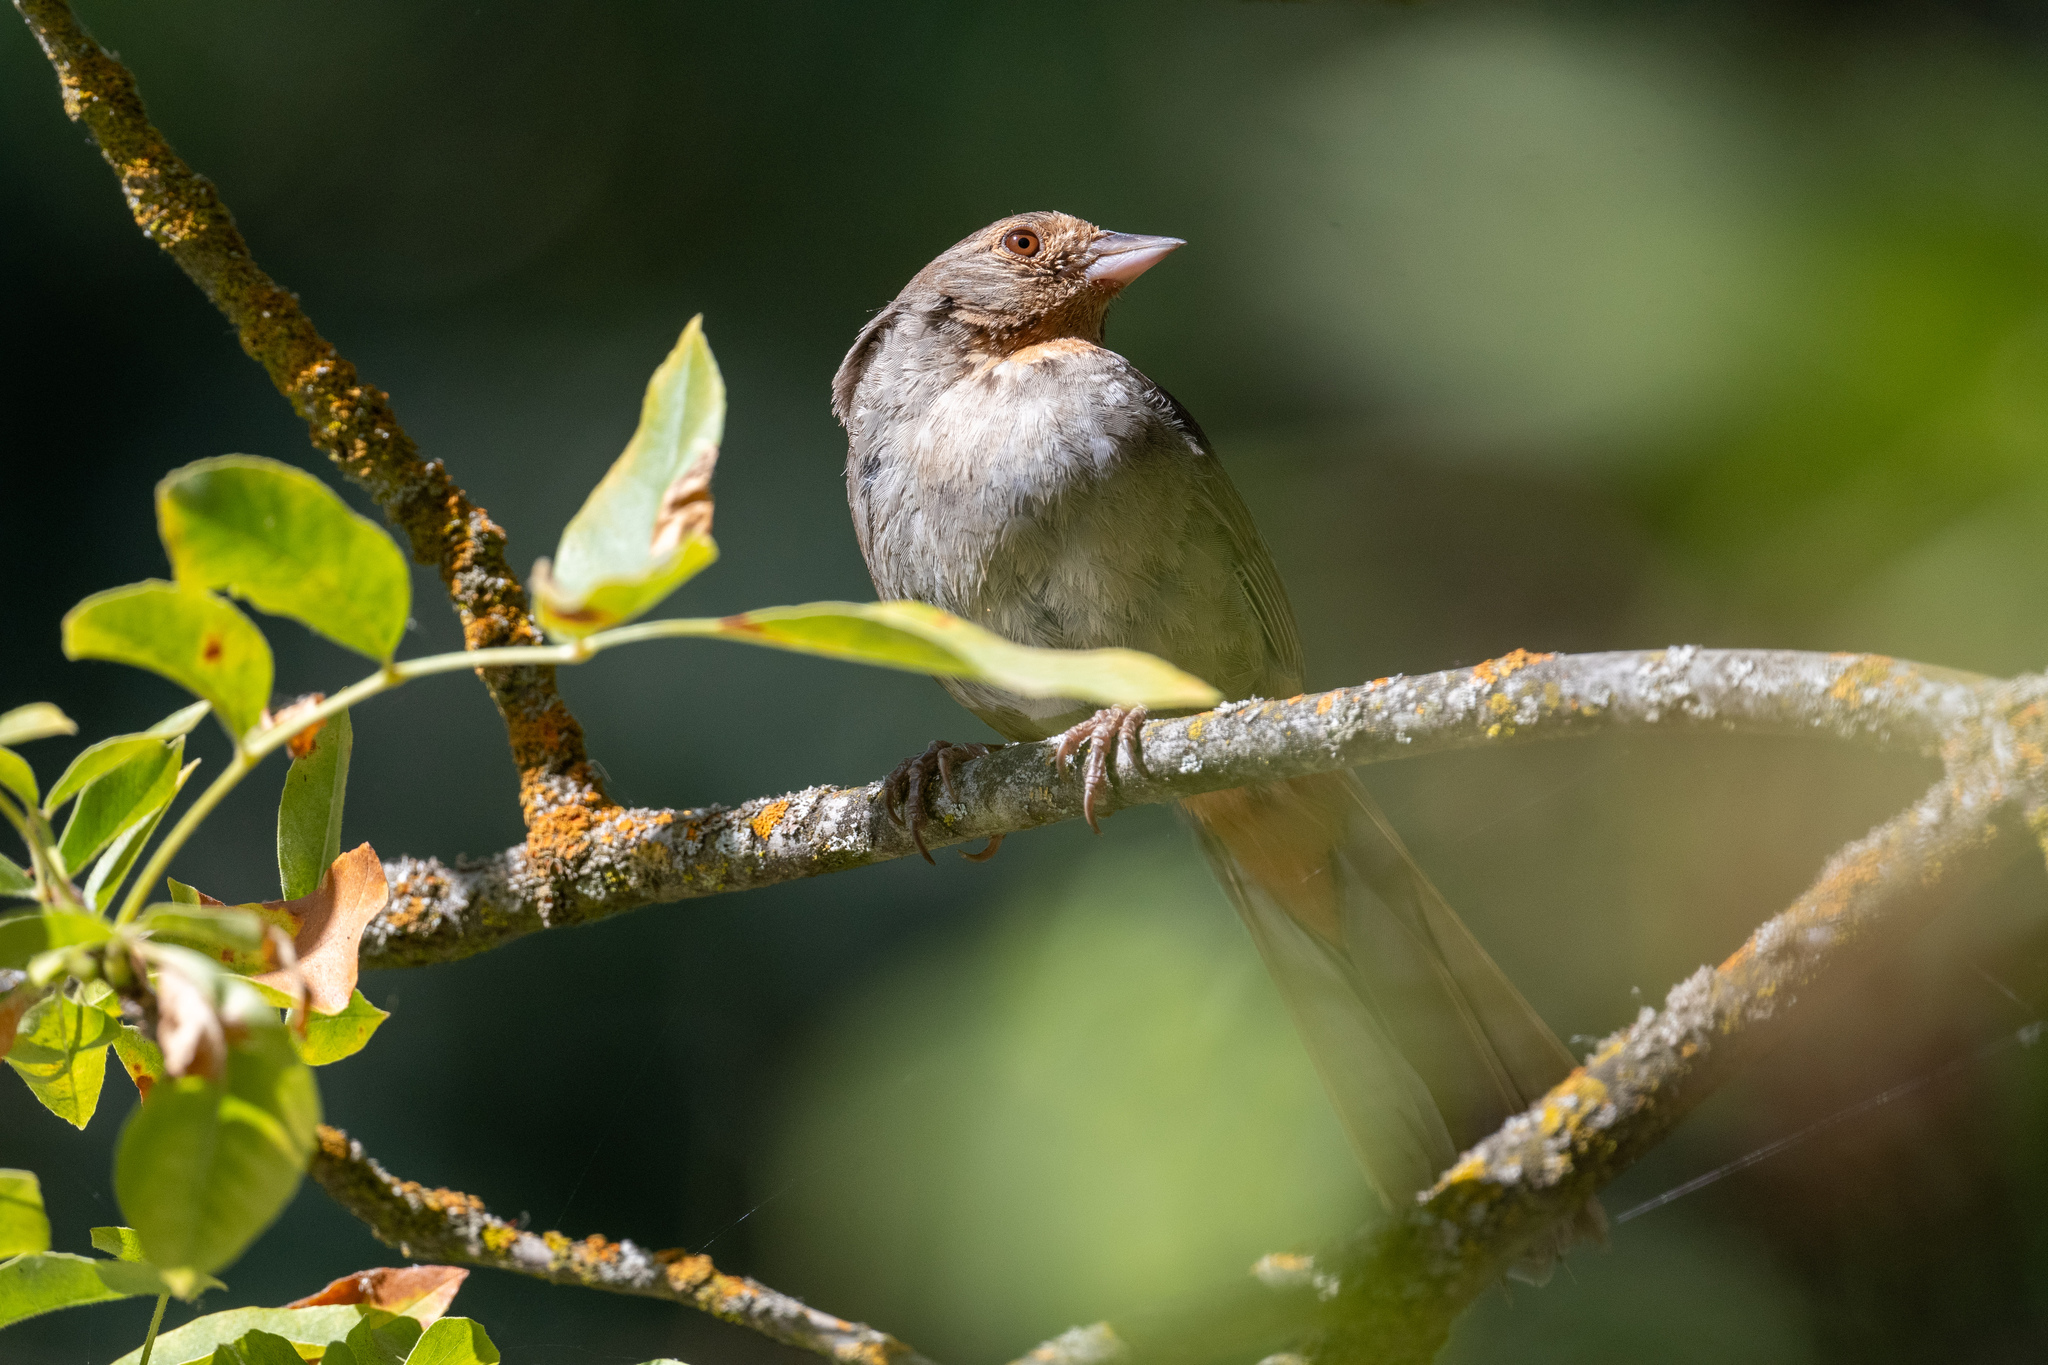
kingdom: Animalia
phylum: Chordata
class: Aves
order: Passeriformes
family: Passerellidae
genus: Melozone
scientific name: Melozone crissalis
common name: California towhee
